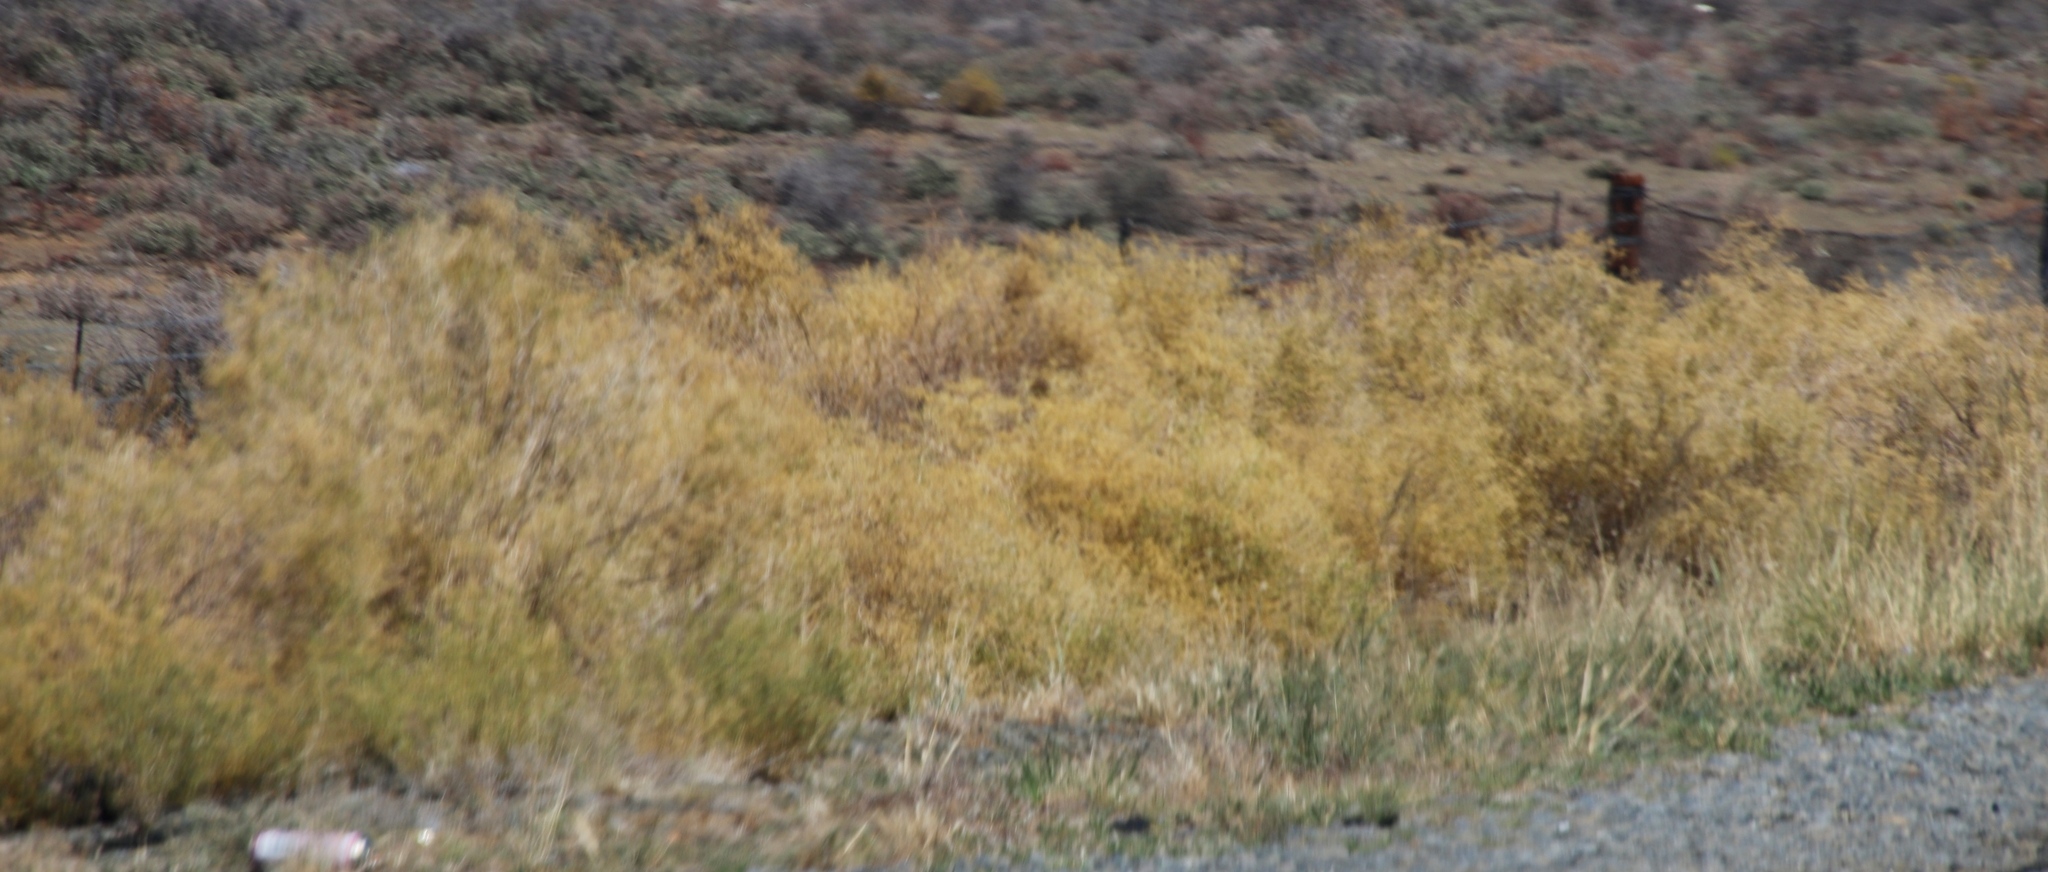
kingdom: Plantae
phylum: Tracheophyta
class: Magnoliopsida
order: Caryophyllales
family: Aizoaceae
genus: Aizoon
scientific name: Aizoon africanum
